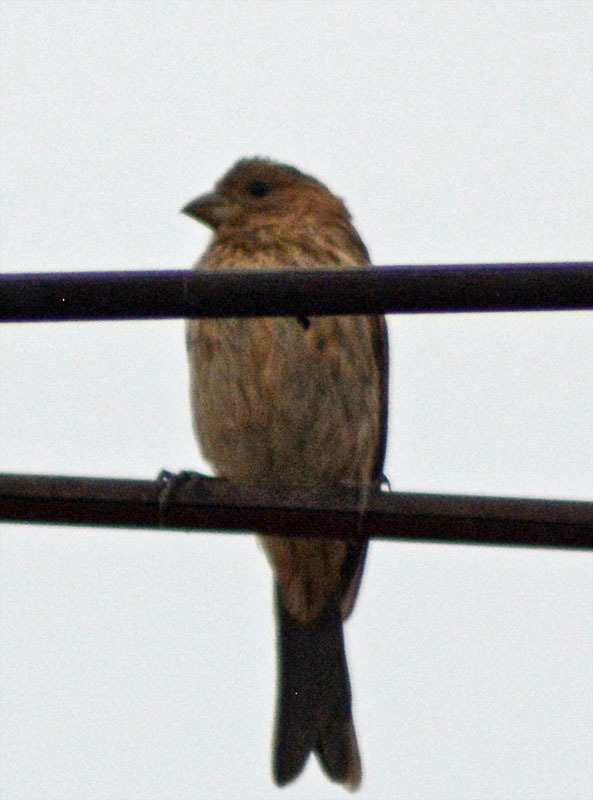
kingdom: Animalia
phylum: Chordata
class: Aves
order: Passeriformes
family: Fringillidae
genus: Haemorhous
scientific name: Haemorhous mexicanus
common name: House finch
